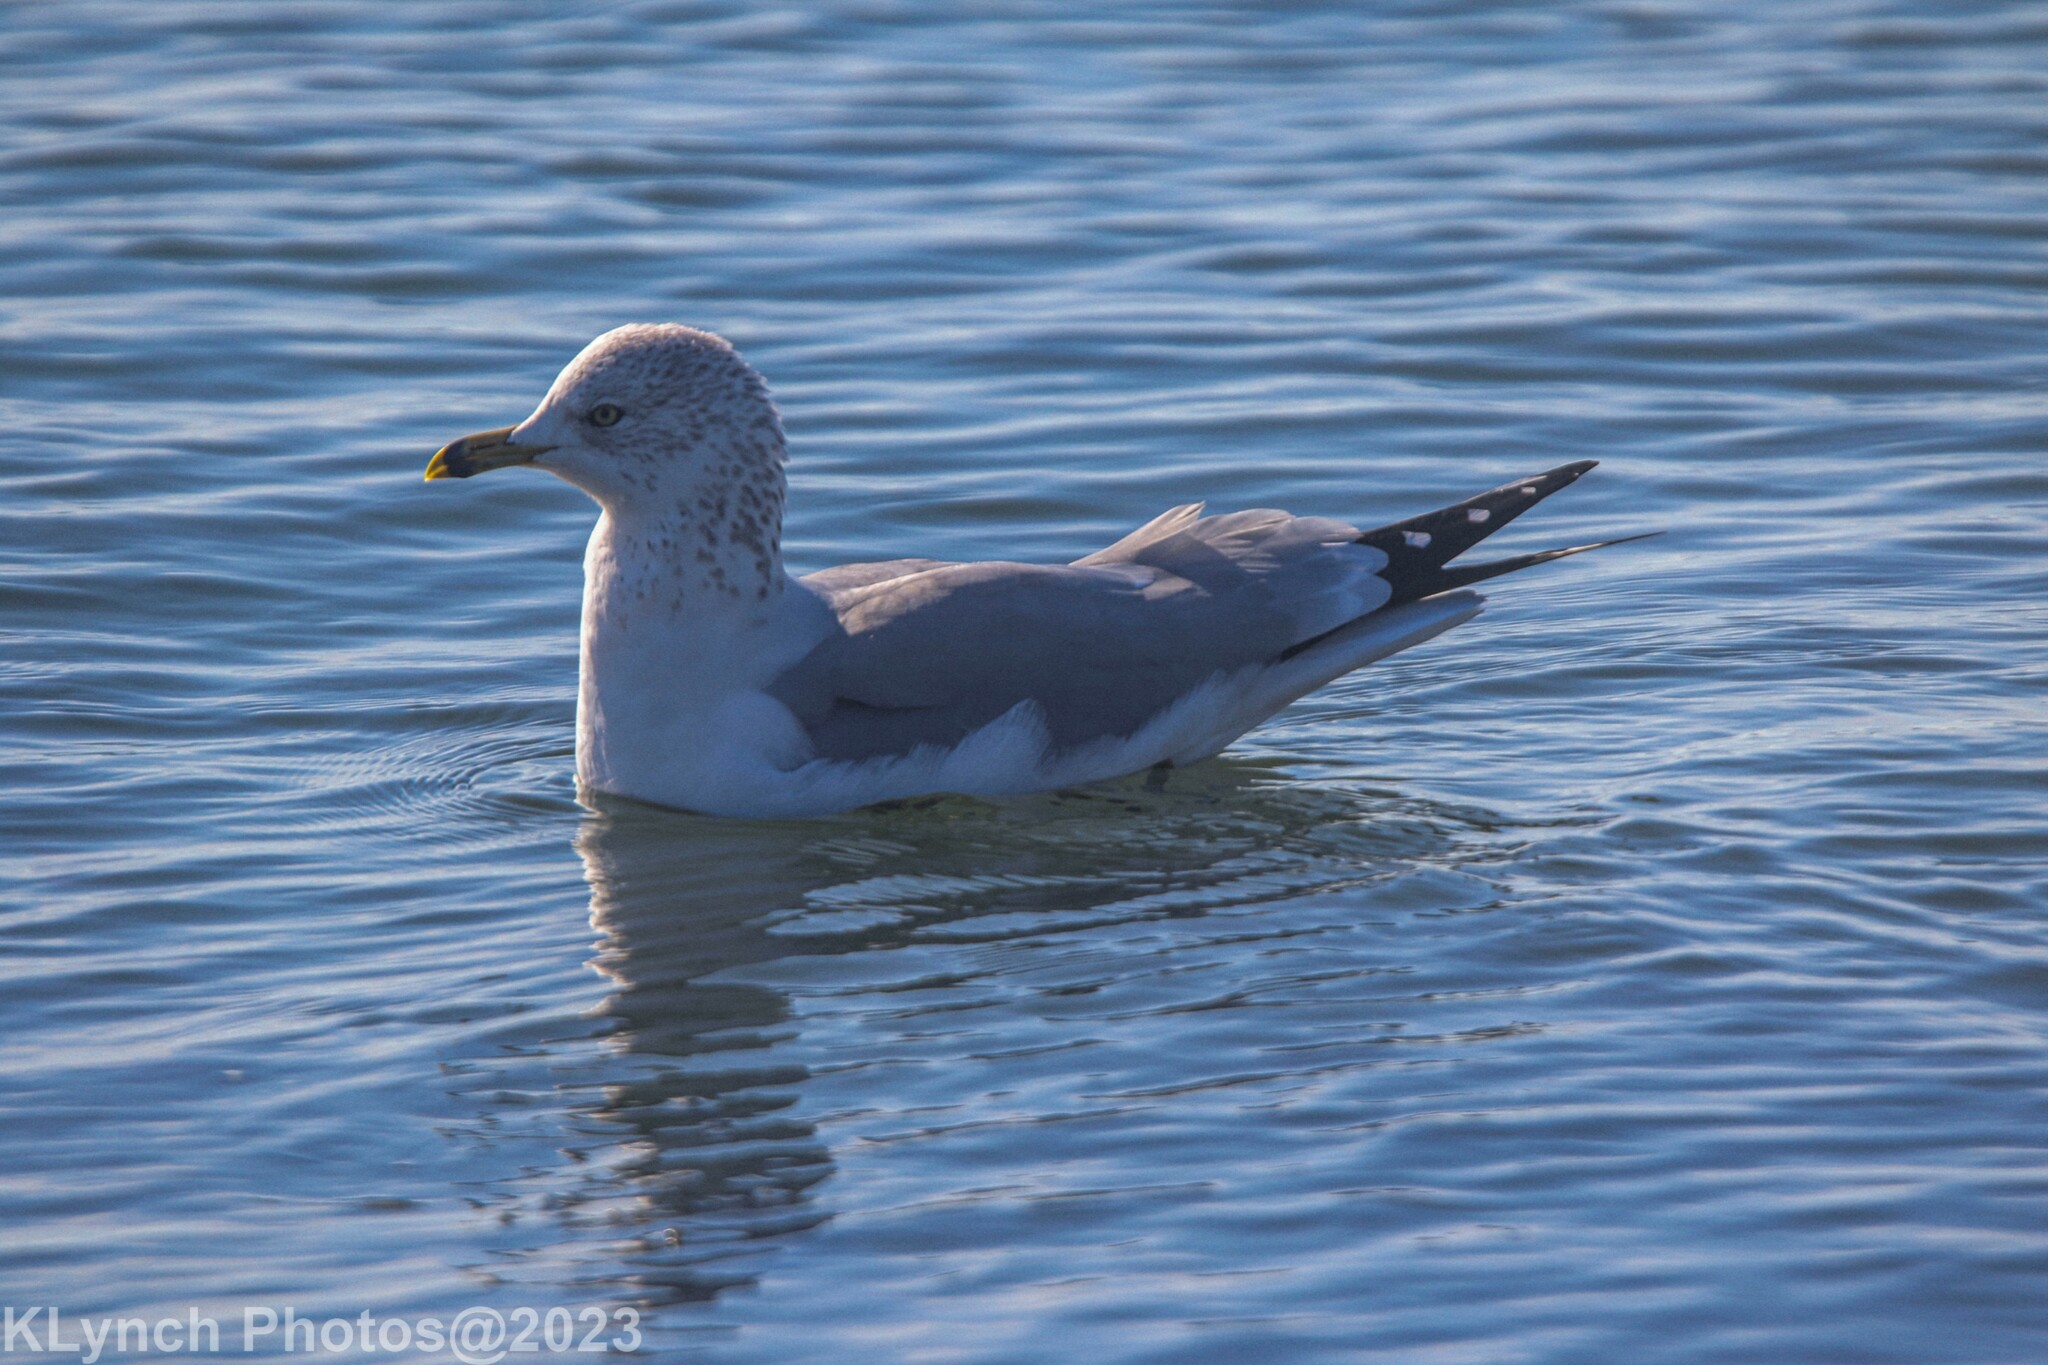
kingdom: Animalia
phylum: Chordata
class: Aves
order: Charadriiformes
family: Laridae
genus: Larus
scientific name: Larus delawarensis
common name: Ring-billed gull
